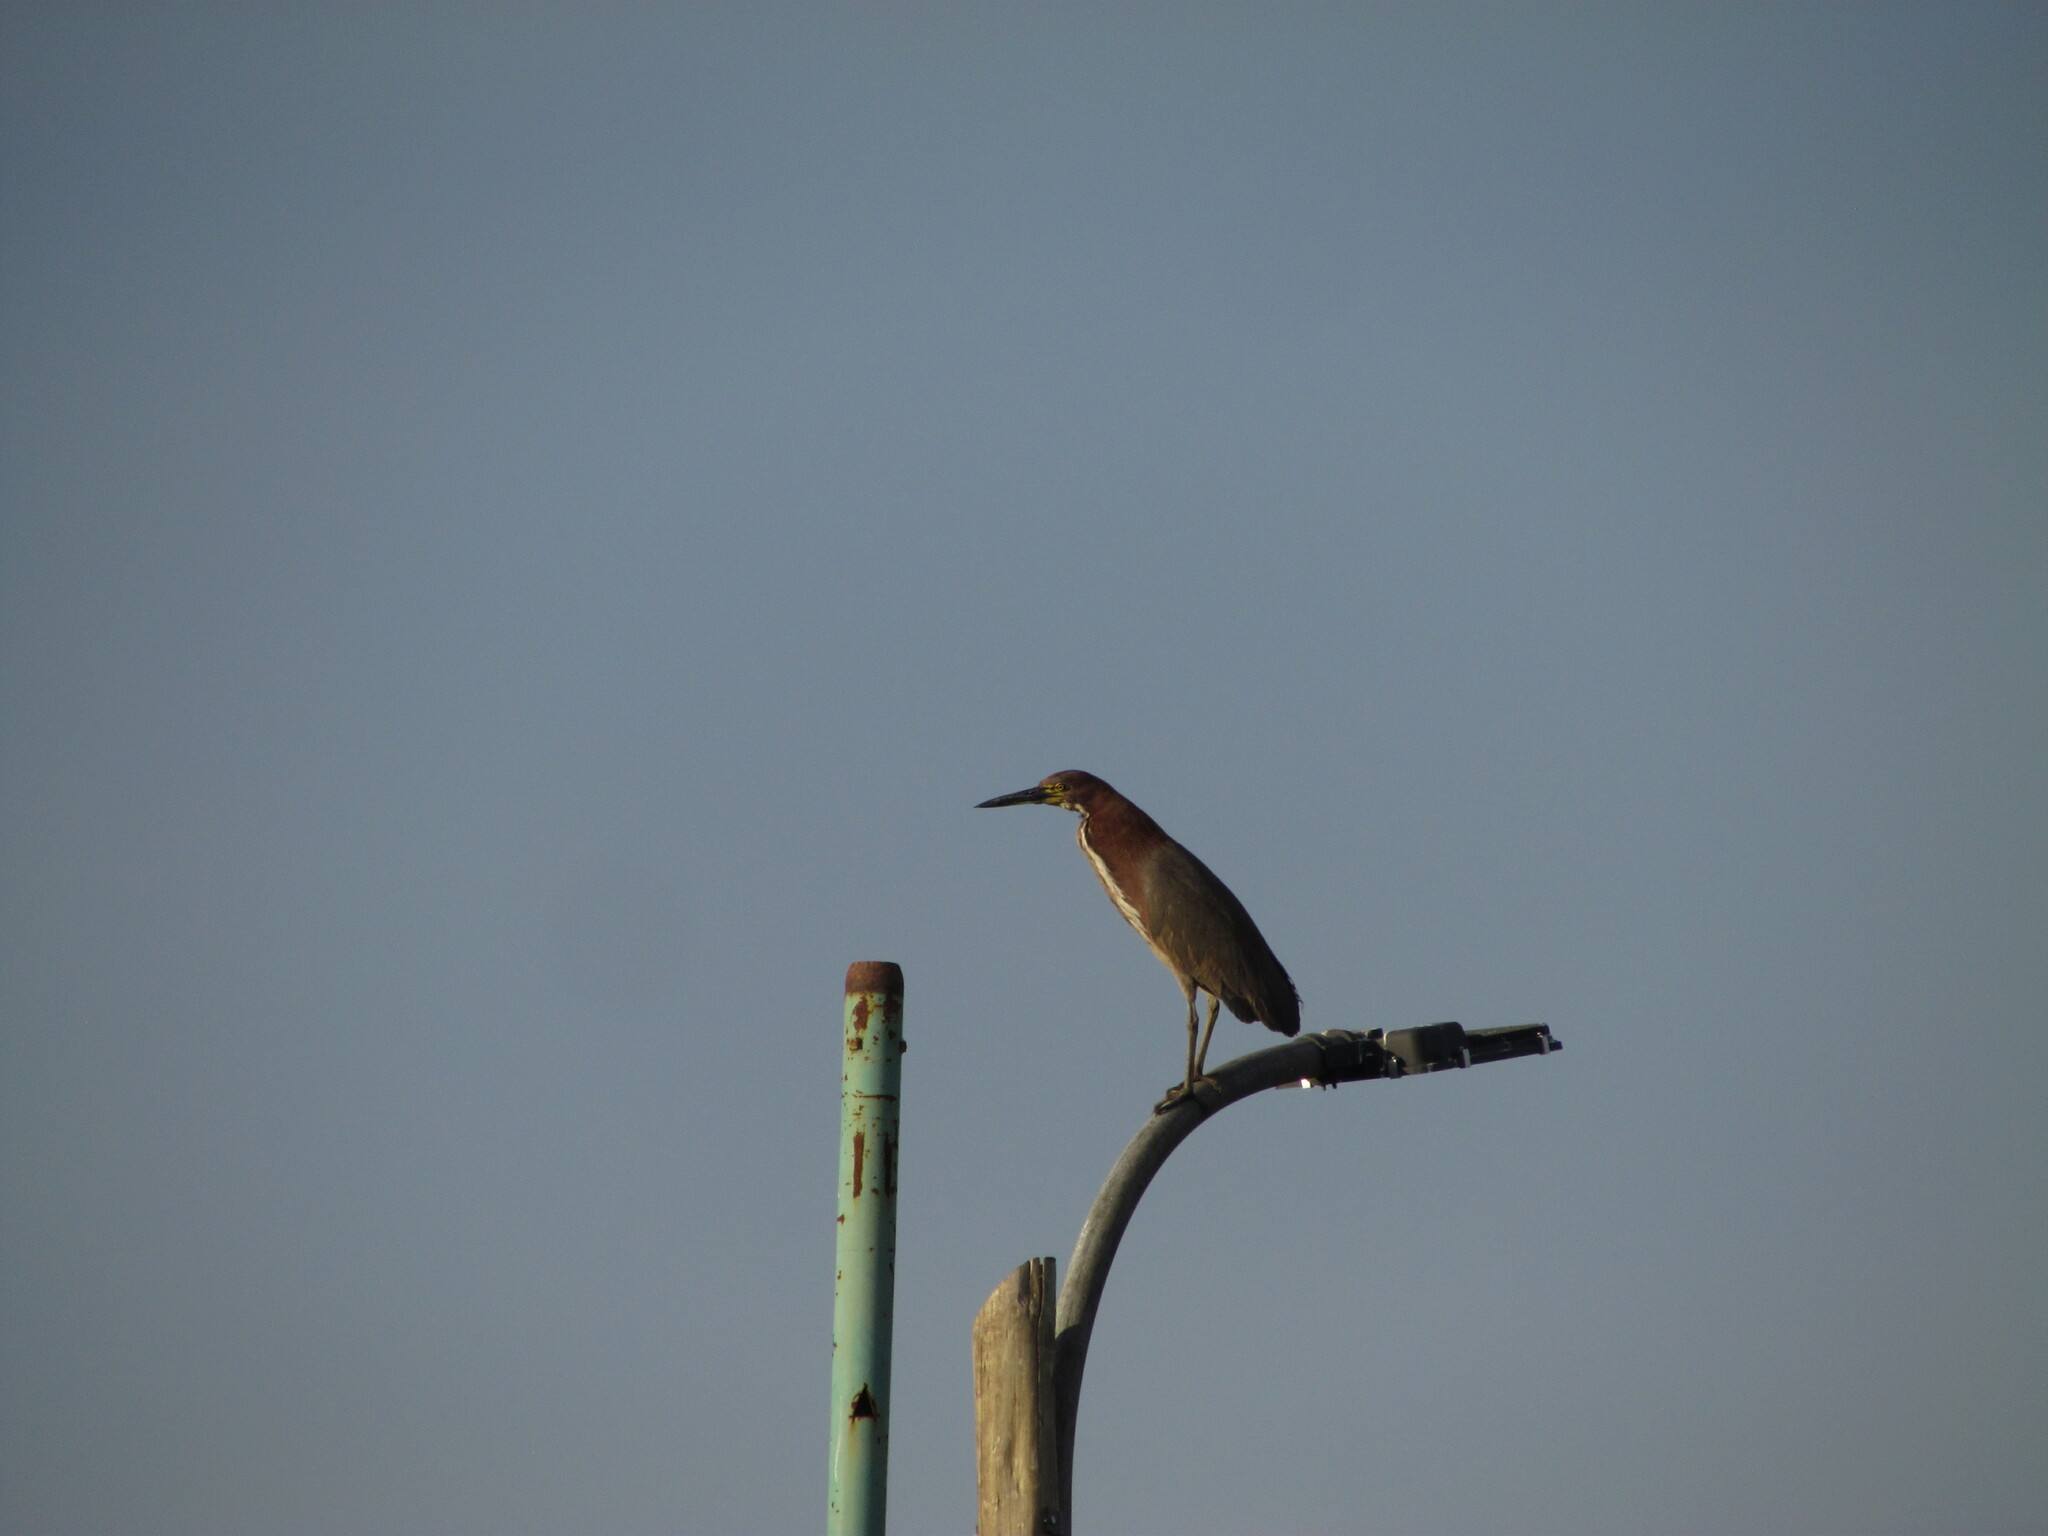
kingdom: Animalia
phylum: Chordata
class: Aves
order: Pelecaniformes
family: Ardeidae
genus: Tigrisoma
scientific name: Tigrisoma lineatum
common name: Rufescent tiger-heron
